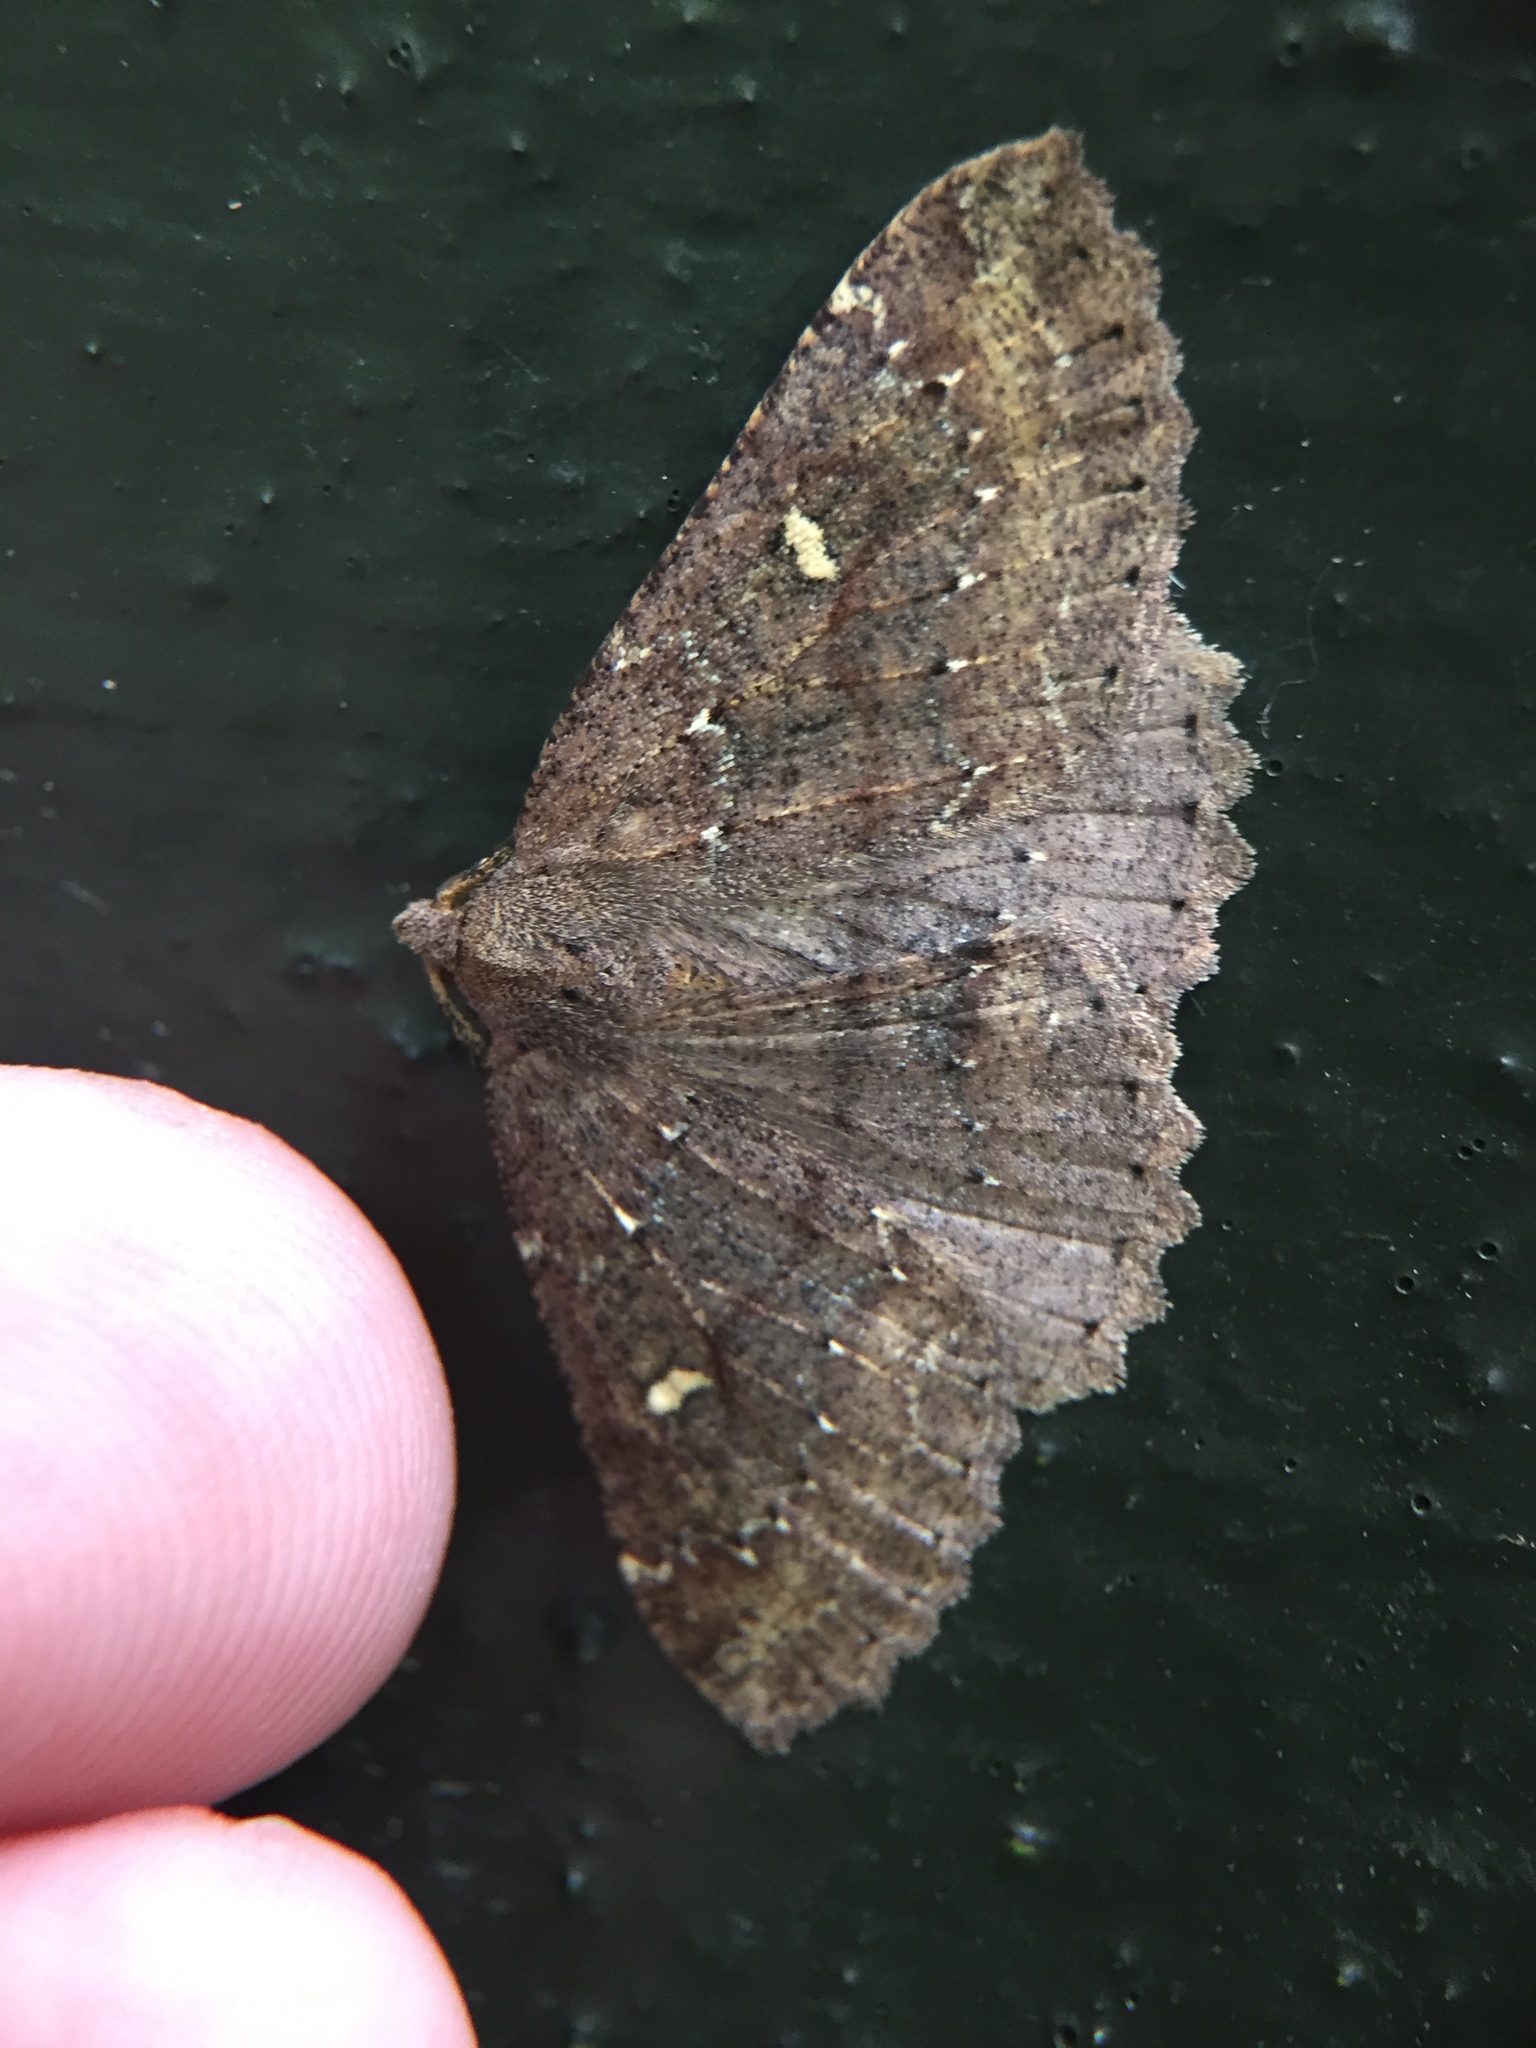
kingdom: Animalia
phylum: Arthropoda
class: Insecta
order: Lepidoptera
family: Geometridae
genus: Cleora
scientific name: Cleora scriptaria
